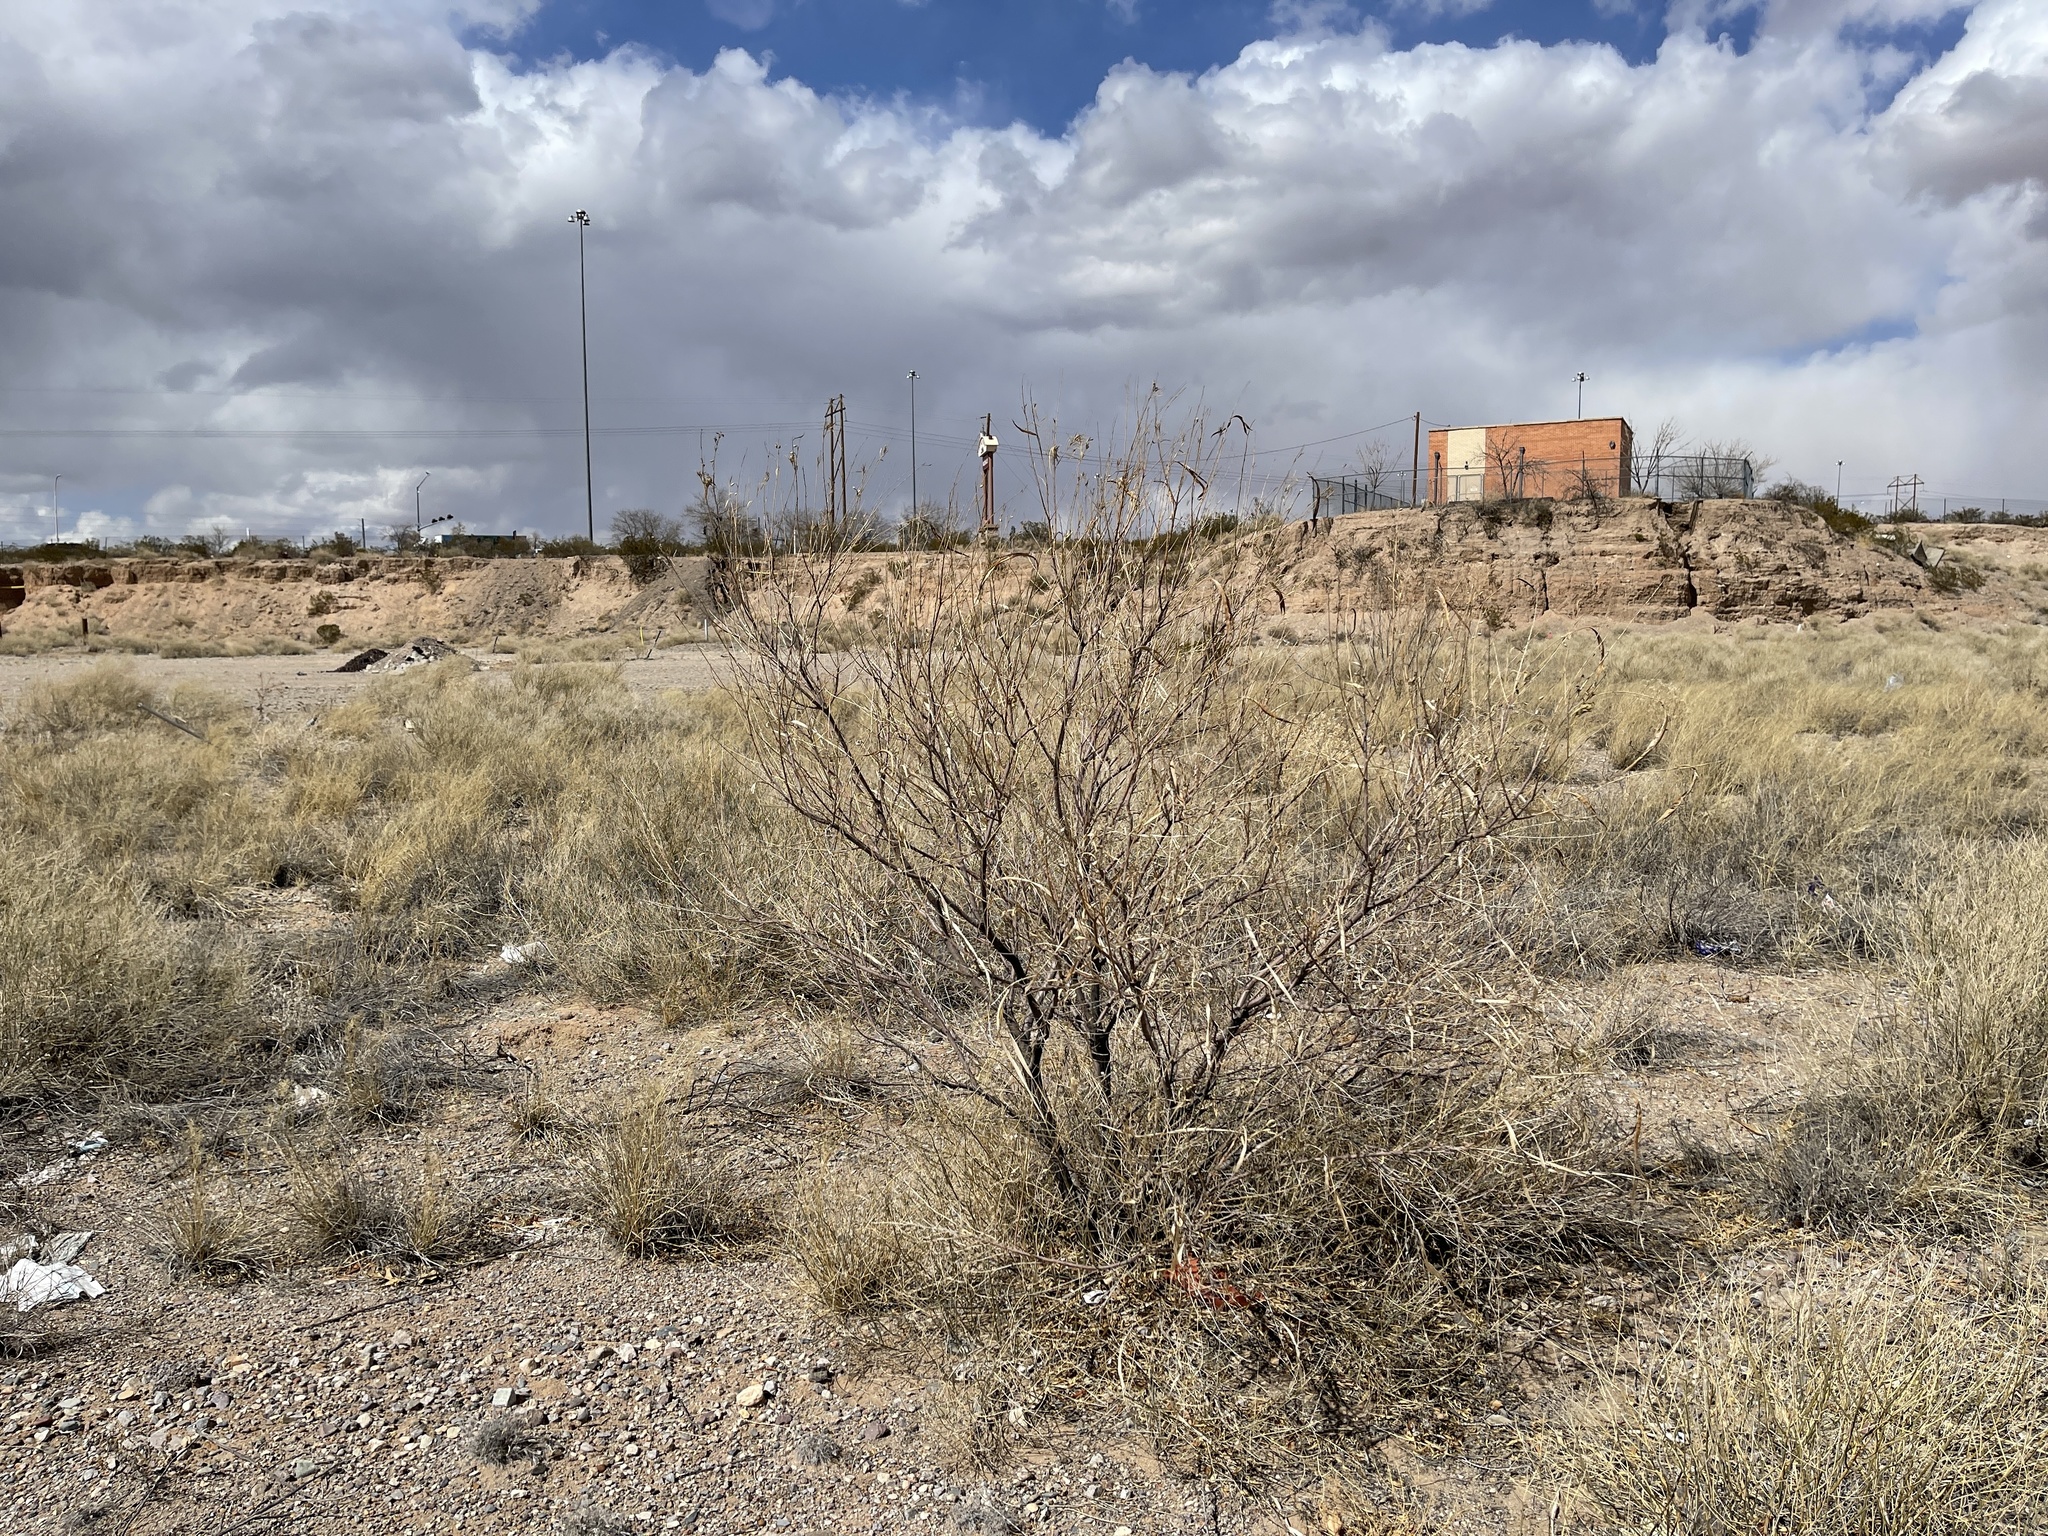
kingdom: Plantae
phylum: Tracheophyta
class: Magnoliopsida
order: Lamiales
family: Bignoniaceae
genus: Chilopsis
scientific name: Chilopsis linearis
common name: Desert-willow
